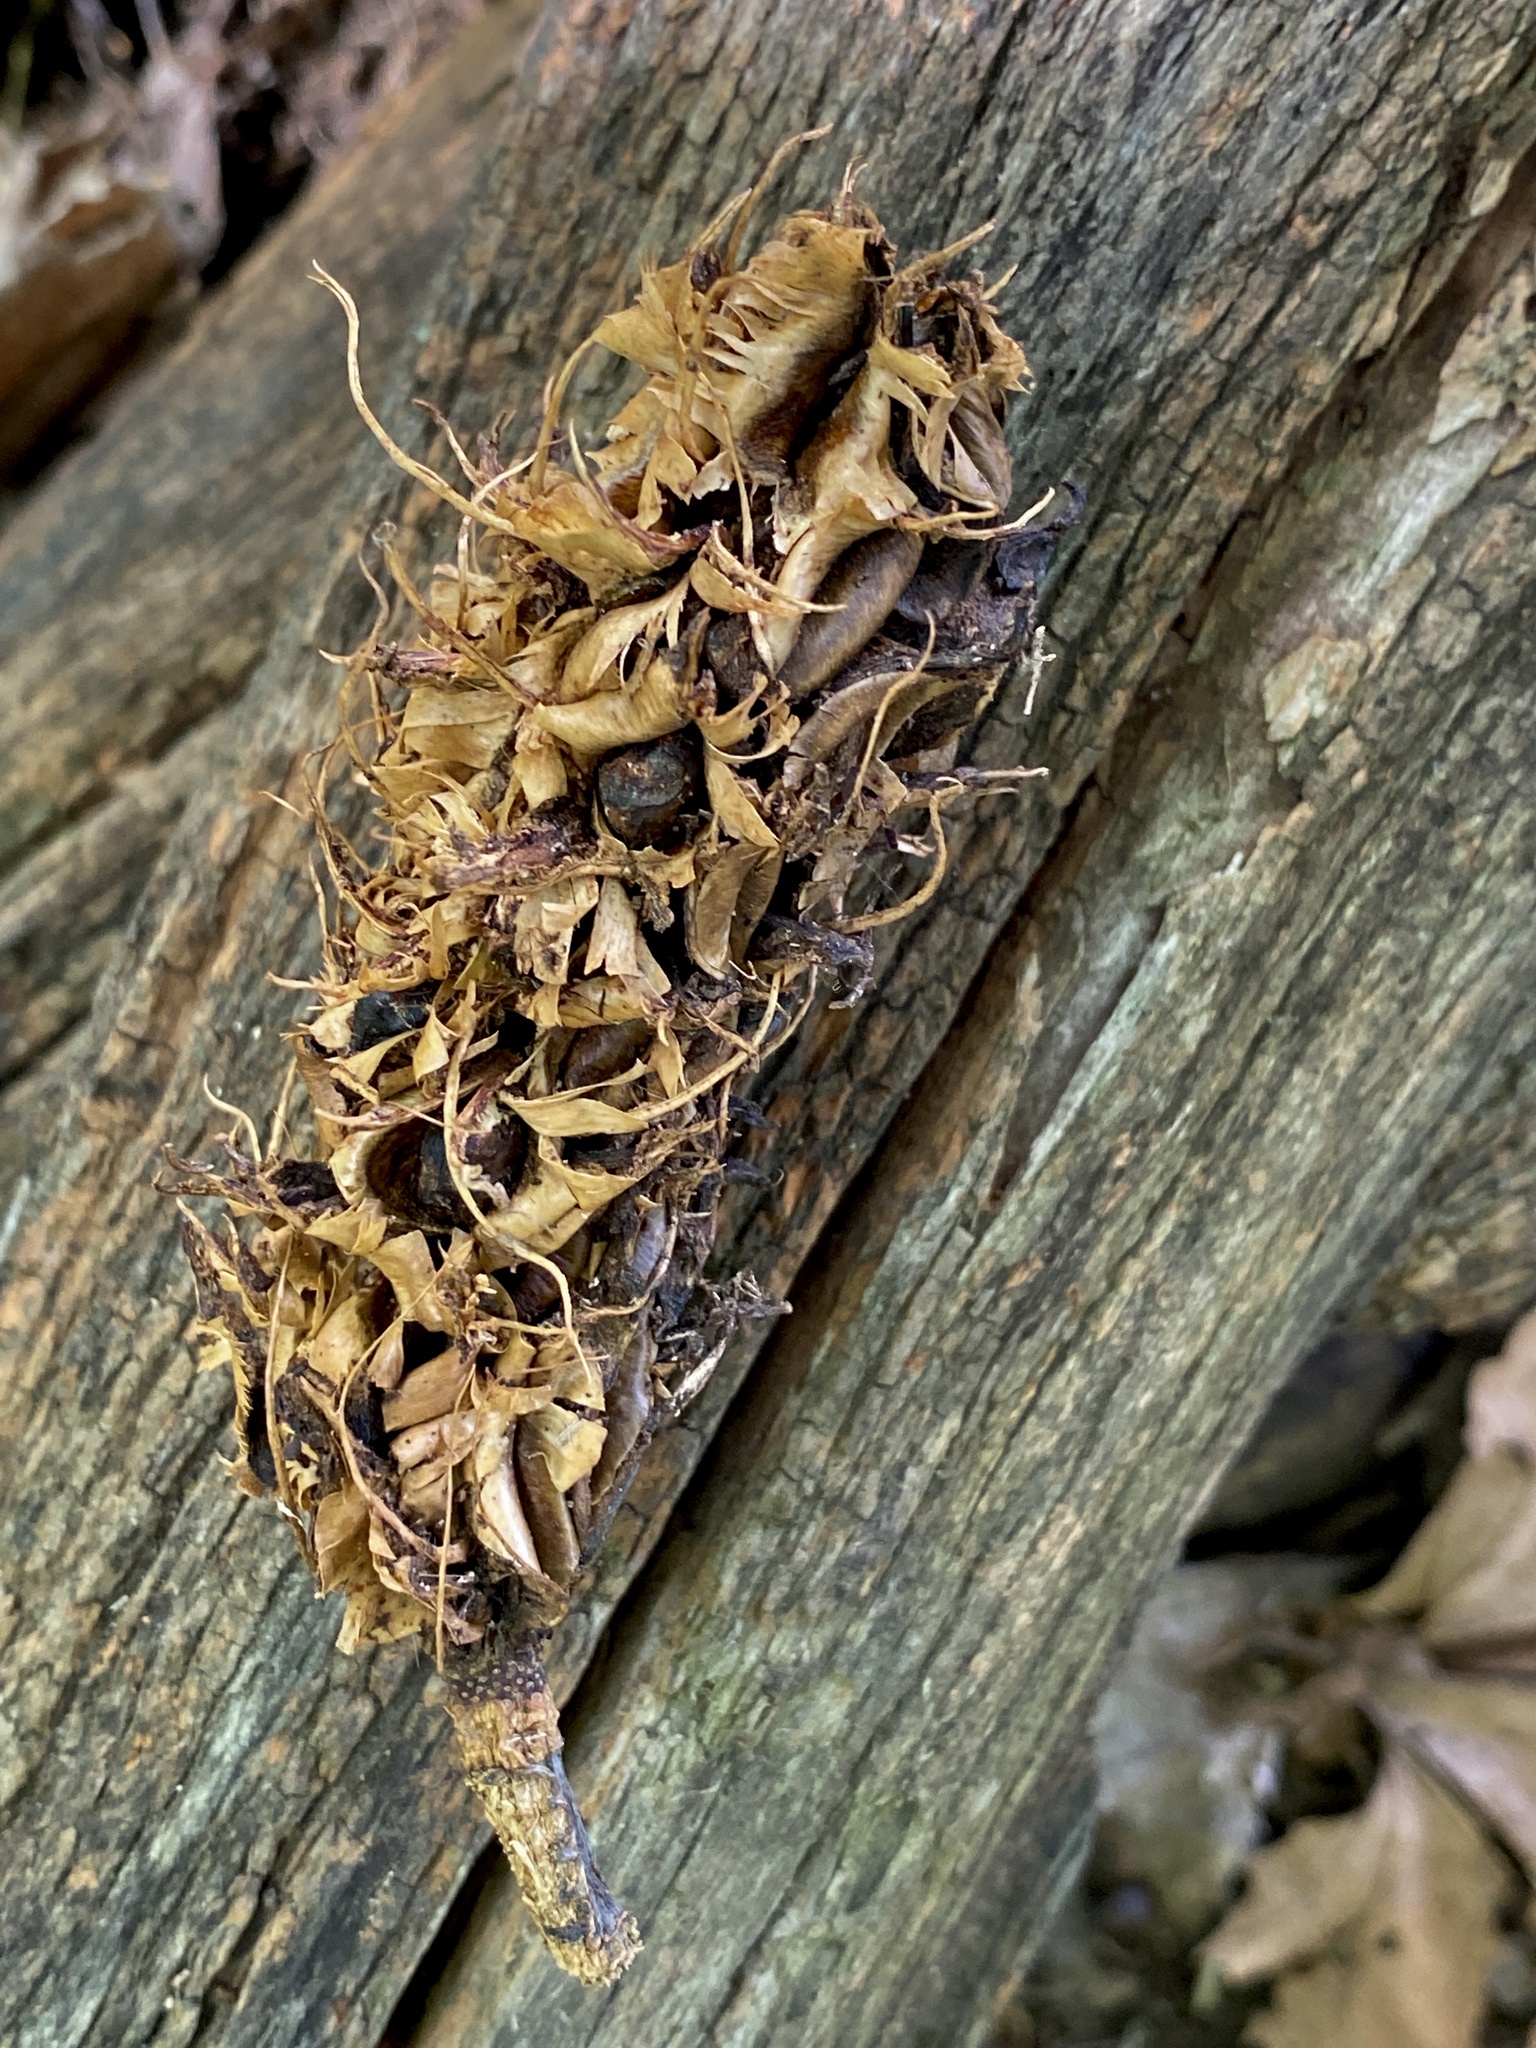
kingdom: Plantae
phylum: Tracheophyta
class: Magnoliopsida
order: Magnoliales
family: Magnoliaceae
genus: Magnolia
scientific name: Magnolia tripetala
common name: Umbrella magnolia
